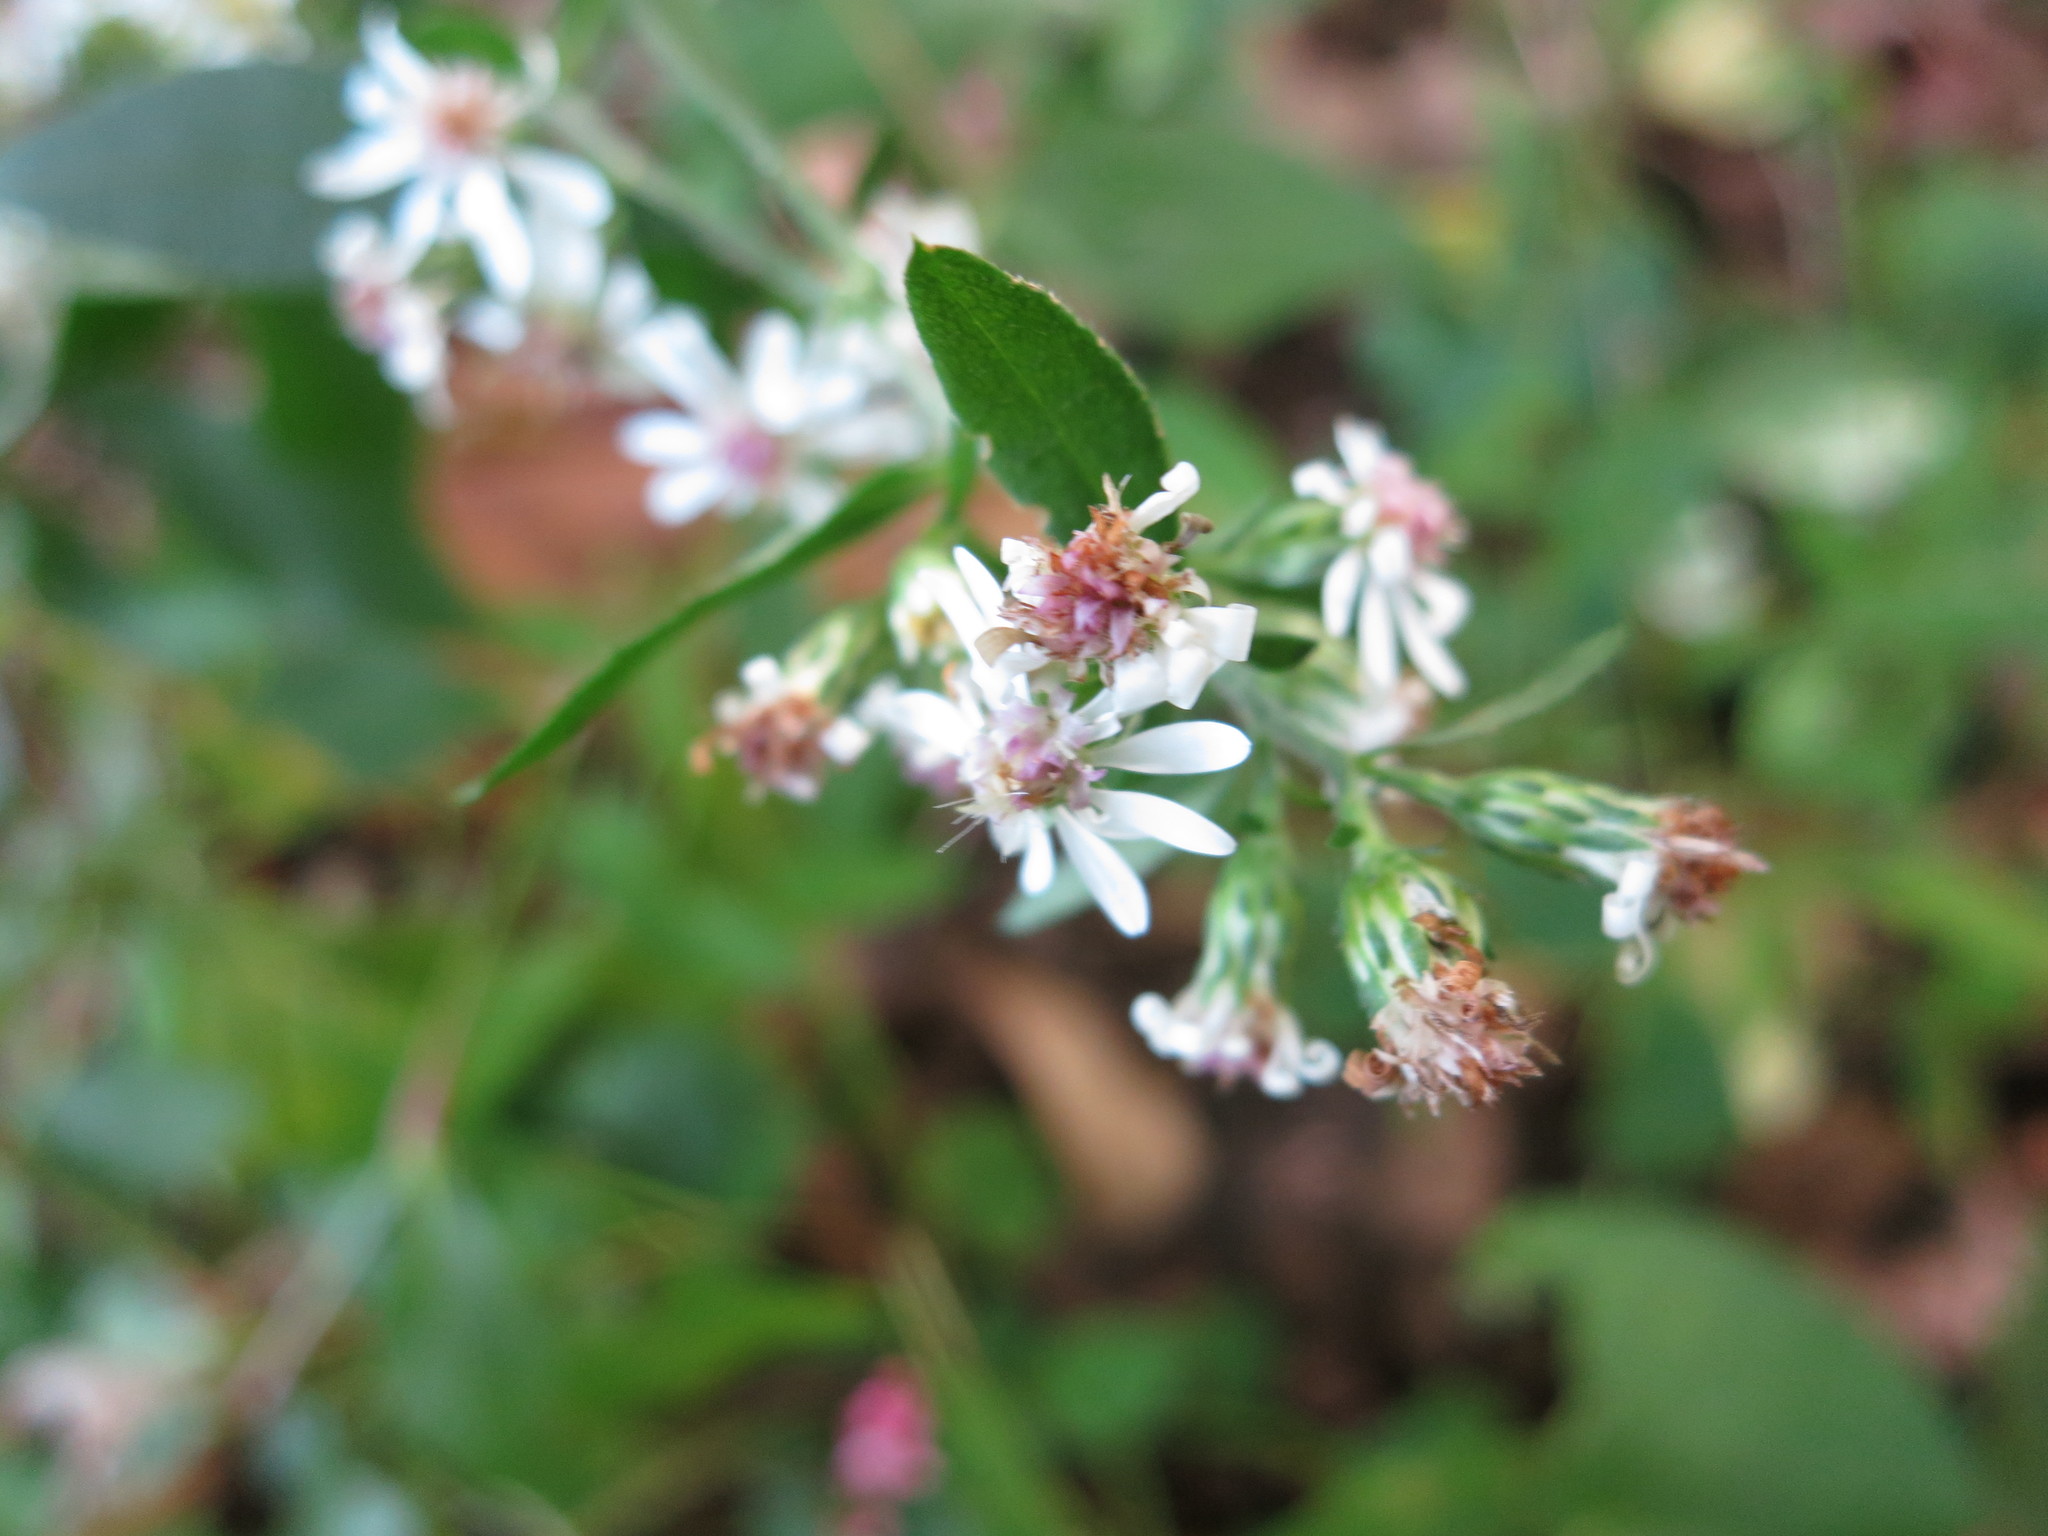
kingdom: Plantae
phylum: Tracheophyta
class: Magnoliopsida
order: Asterales
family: Asteraceae
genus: Symphyotrichum
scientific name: Symphyotrichum lateriflorum
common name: Calico aster
